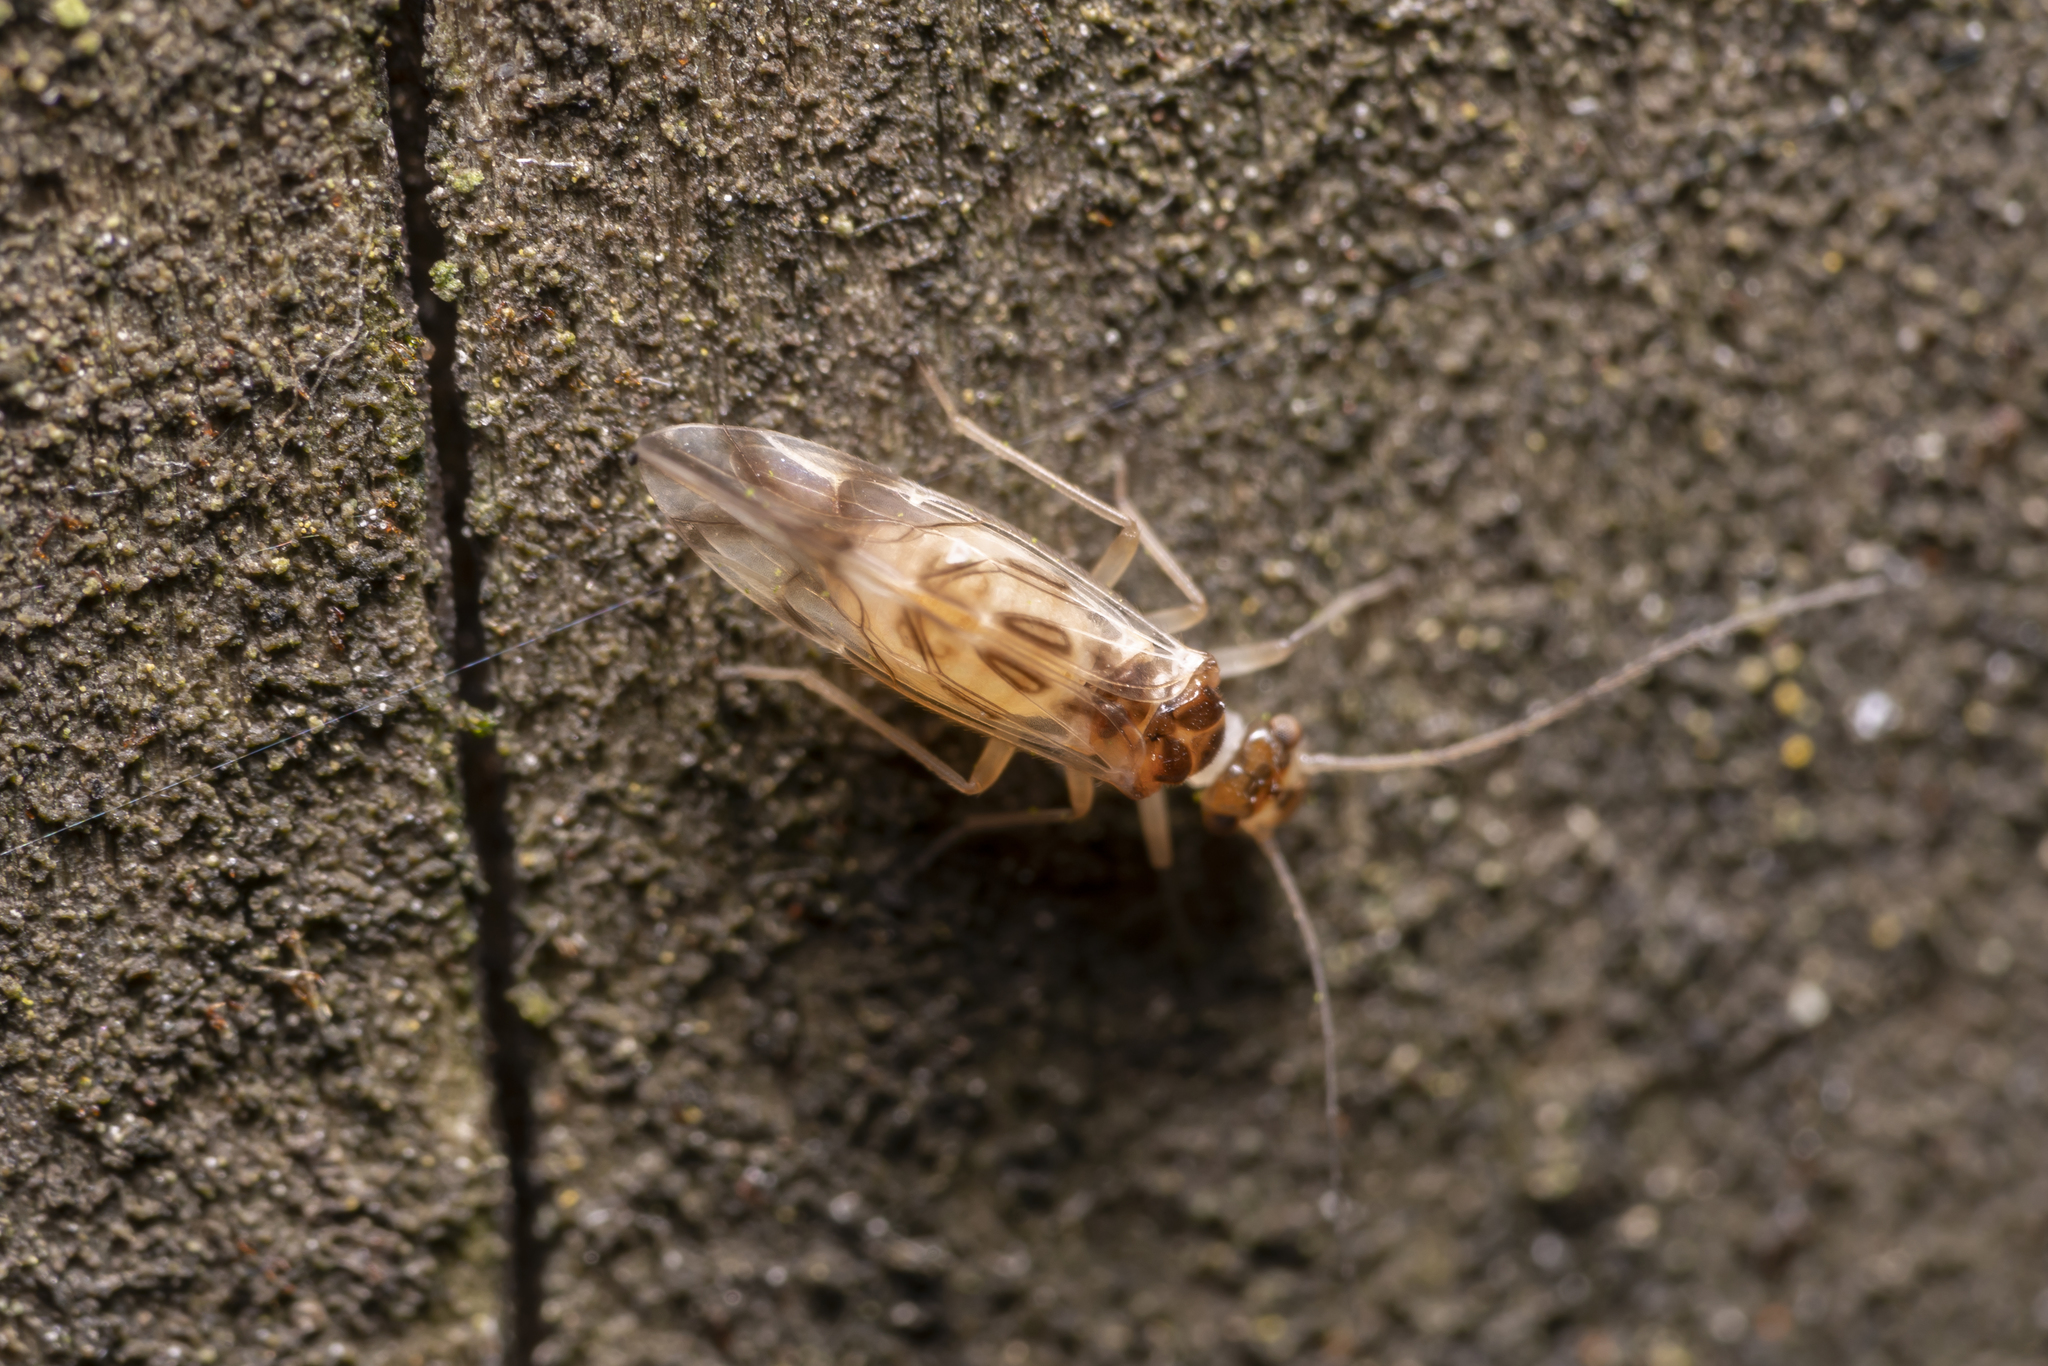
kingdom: Animalia
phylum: Arthropoda
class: Insecta
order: Psocodea
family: Stenopsocidae
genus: Graphopsocus
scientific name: Graphopsocus cruciatus
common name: Lizard bark louse
